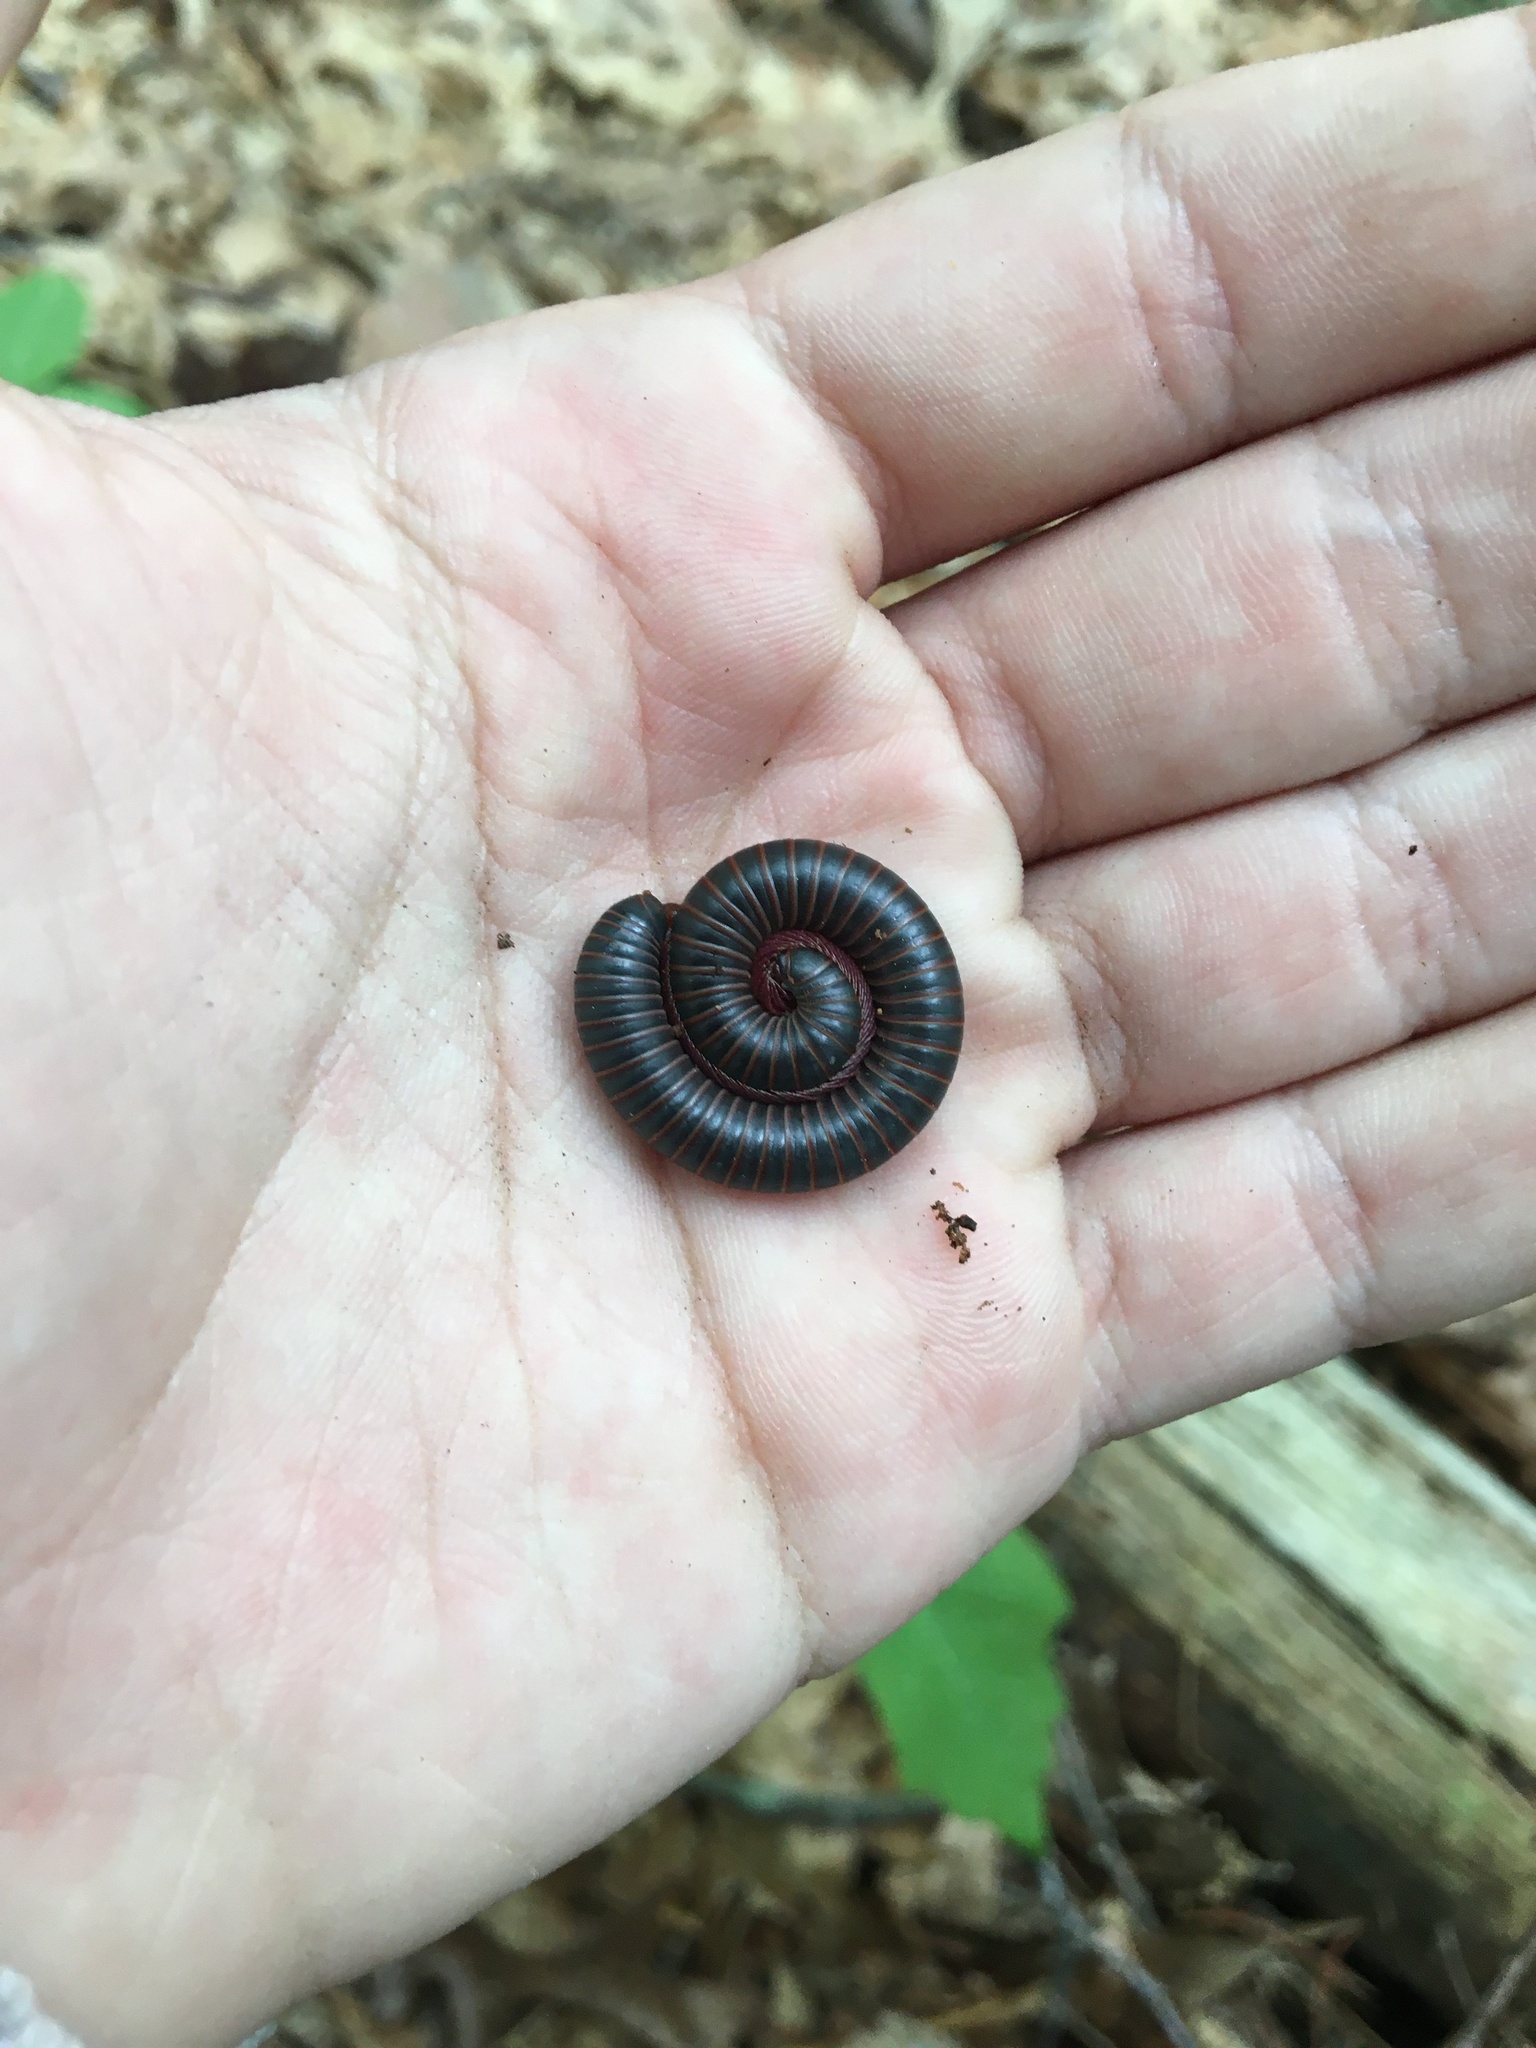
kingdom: Animalia
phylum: Arthropoda
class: Diplopoda
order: Spirobolida
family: Spirobolidae
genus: Narceus
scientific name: Narceus
